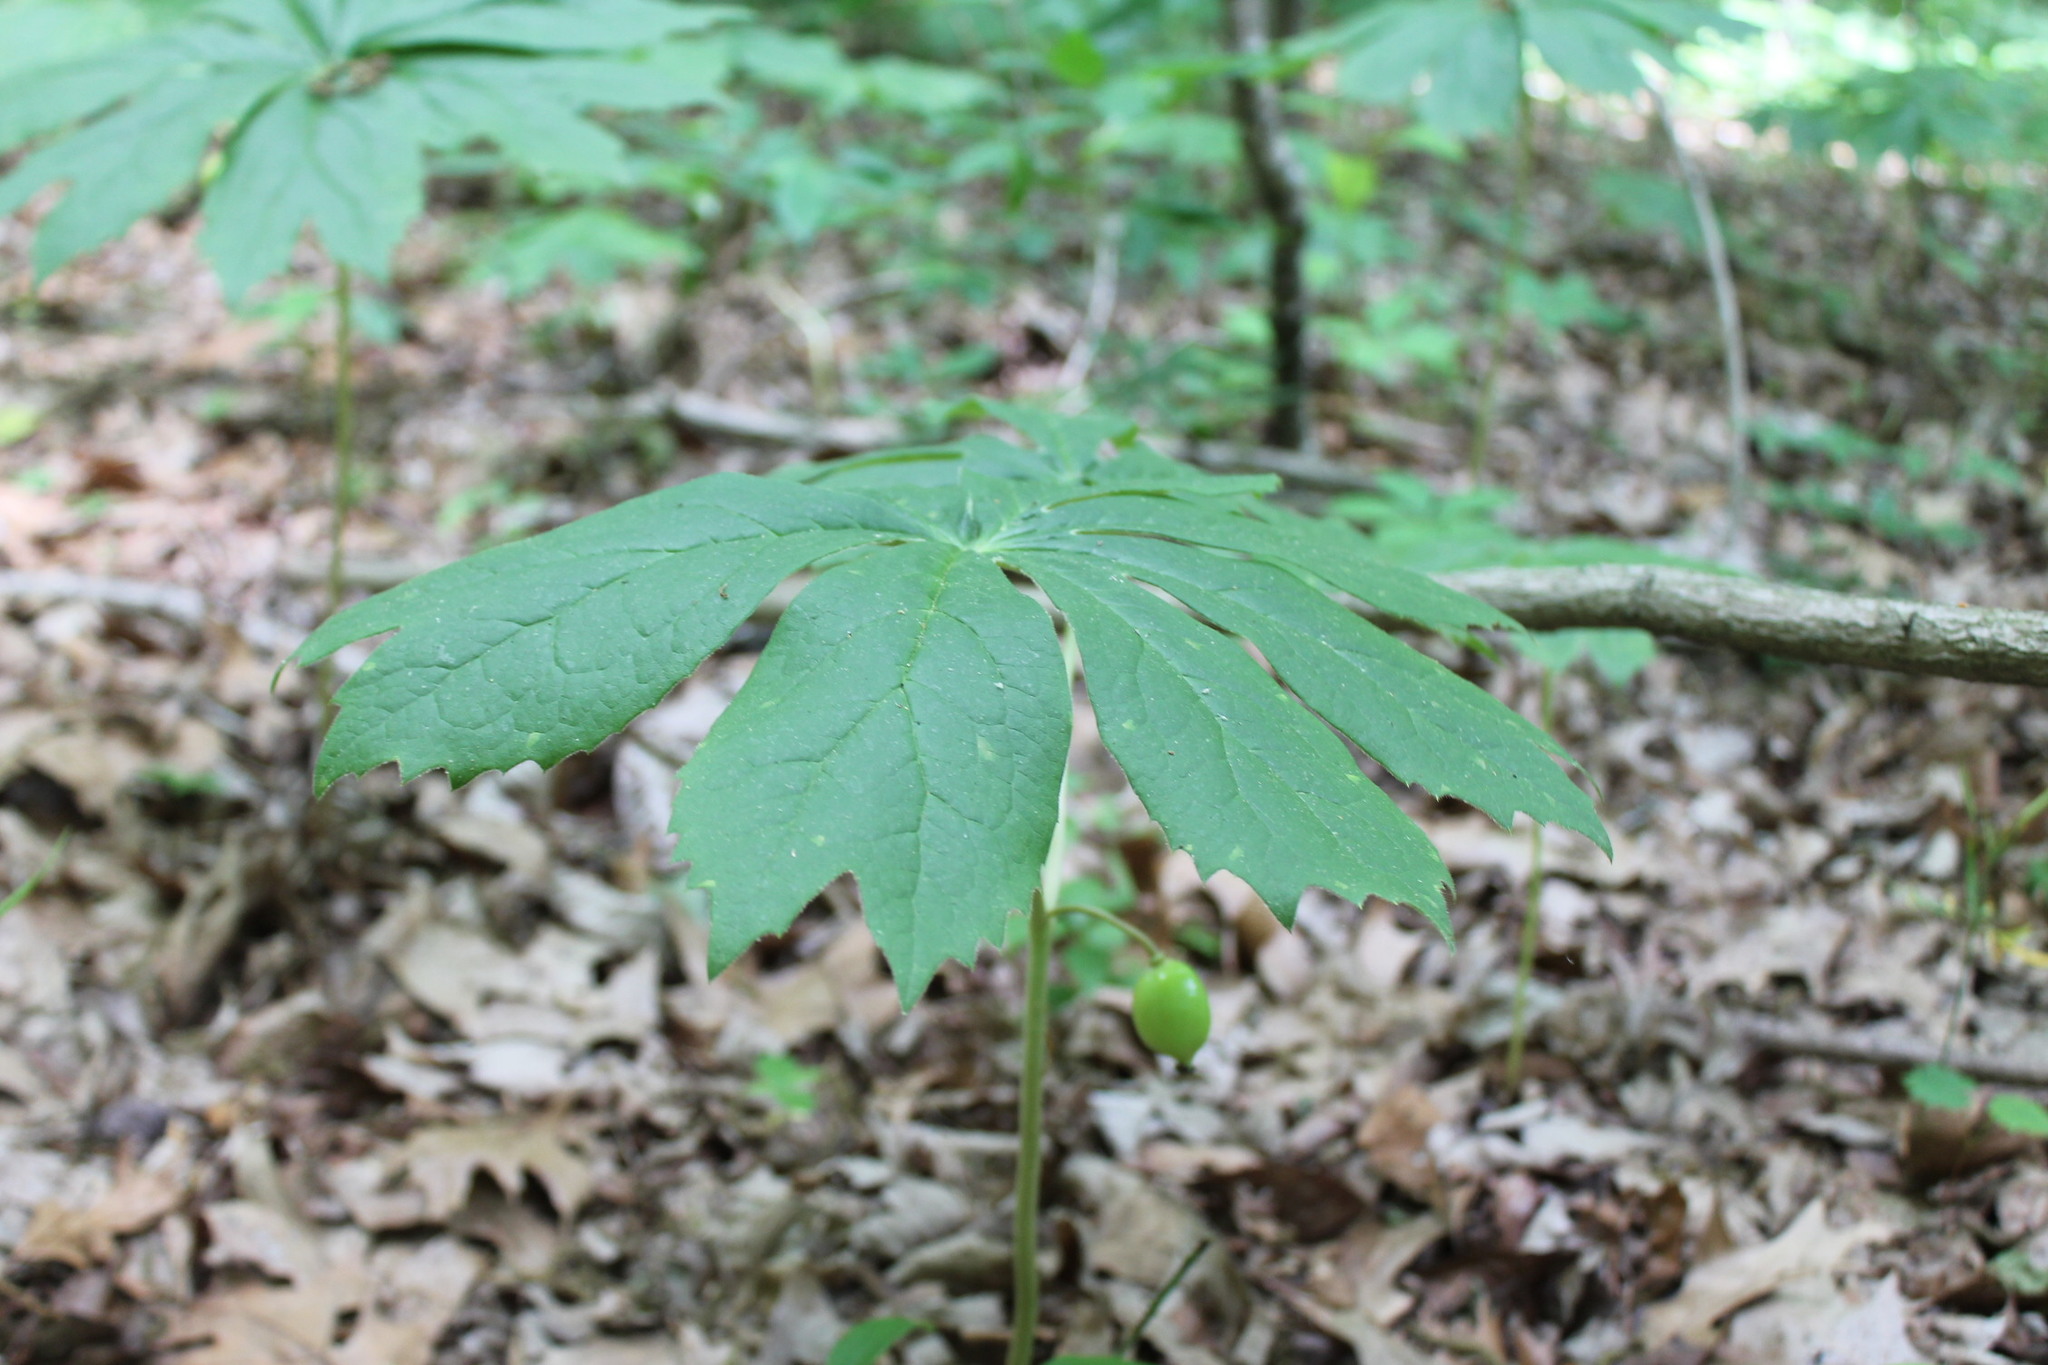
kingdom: Plantae
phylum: Tracheophyta
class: Magnoliopsida
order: Ranunculales
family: Berberidaceae
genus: Podophyllum
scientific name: Podophyllum peltatum
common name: Wild mandrake
